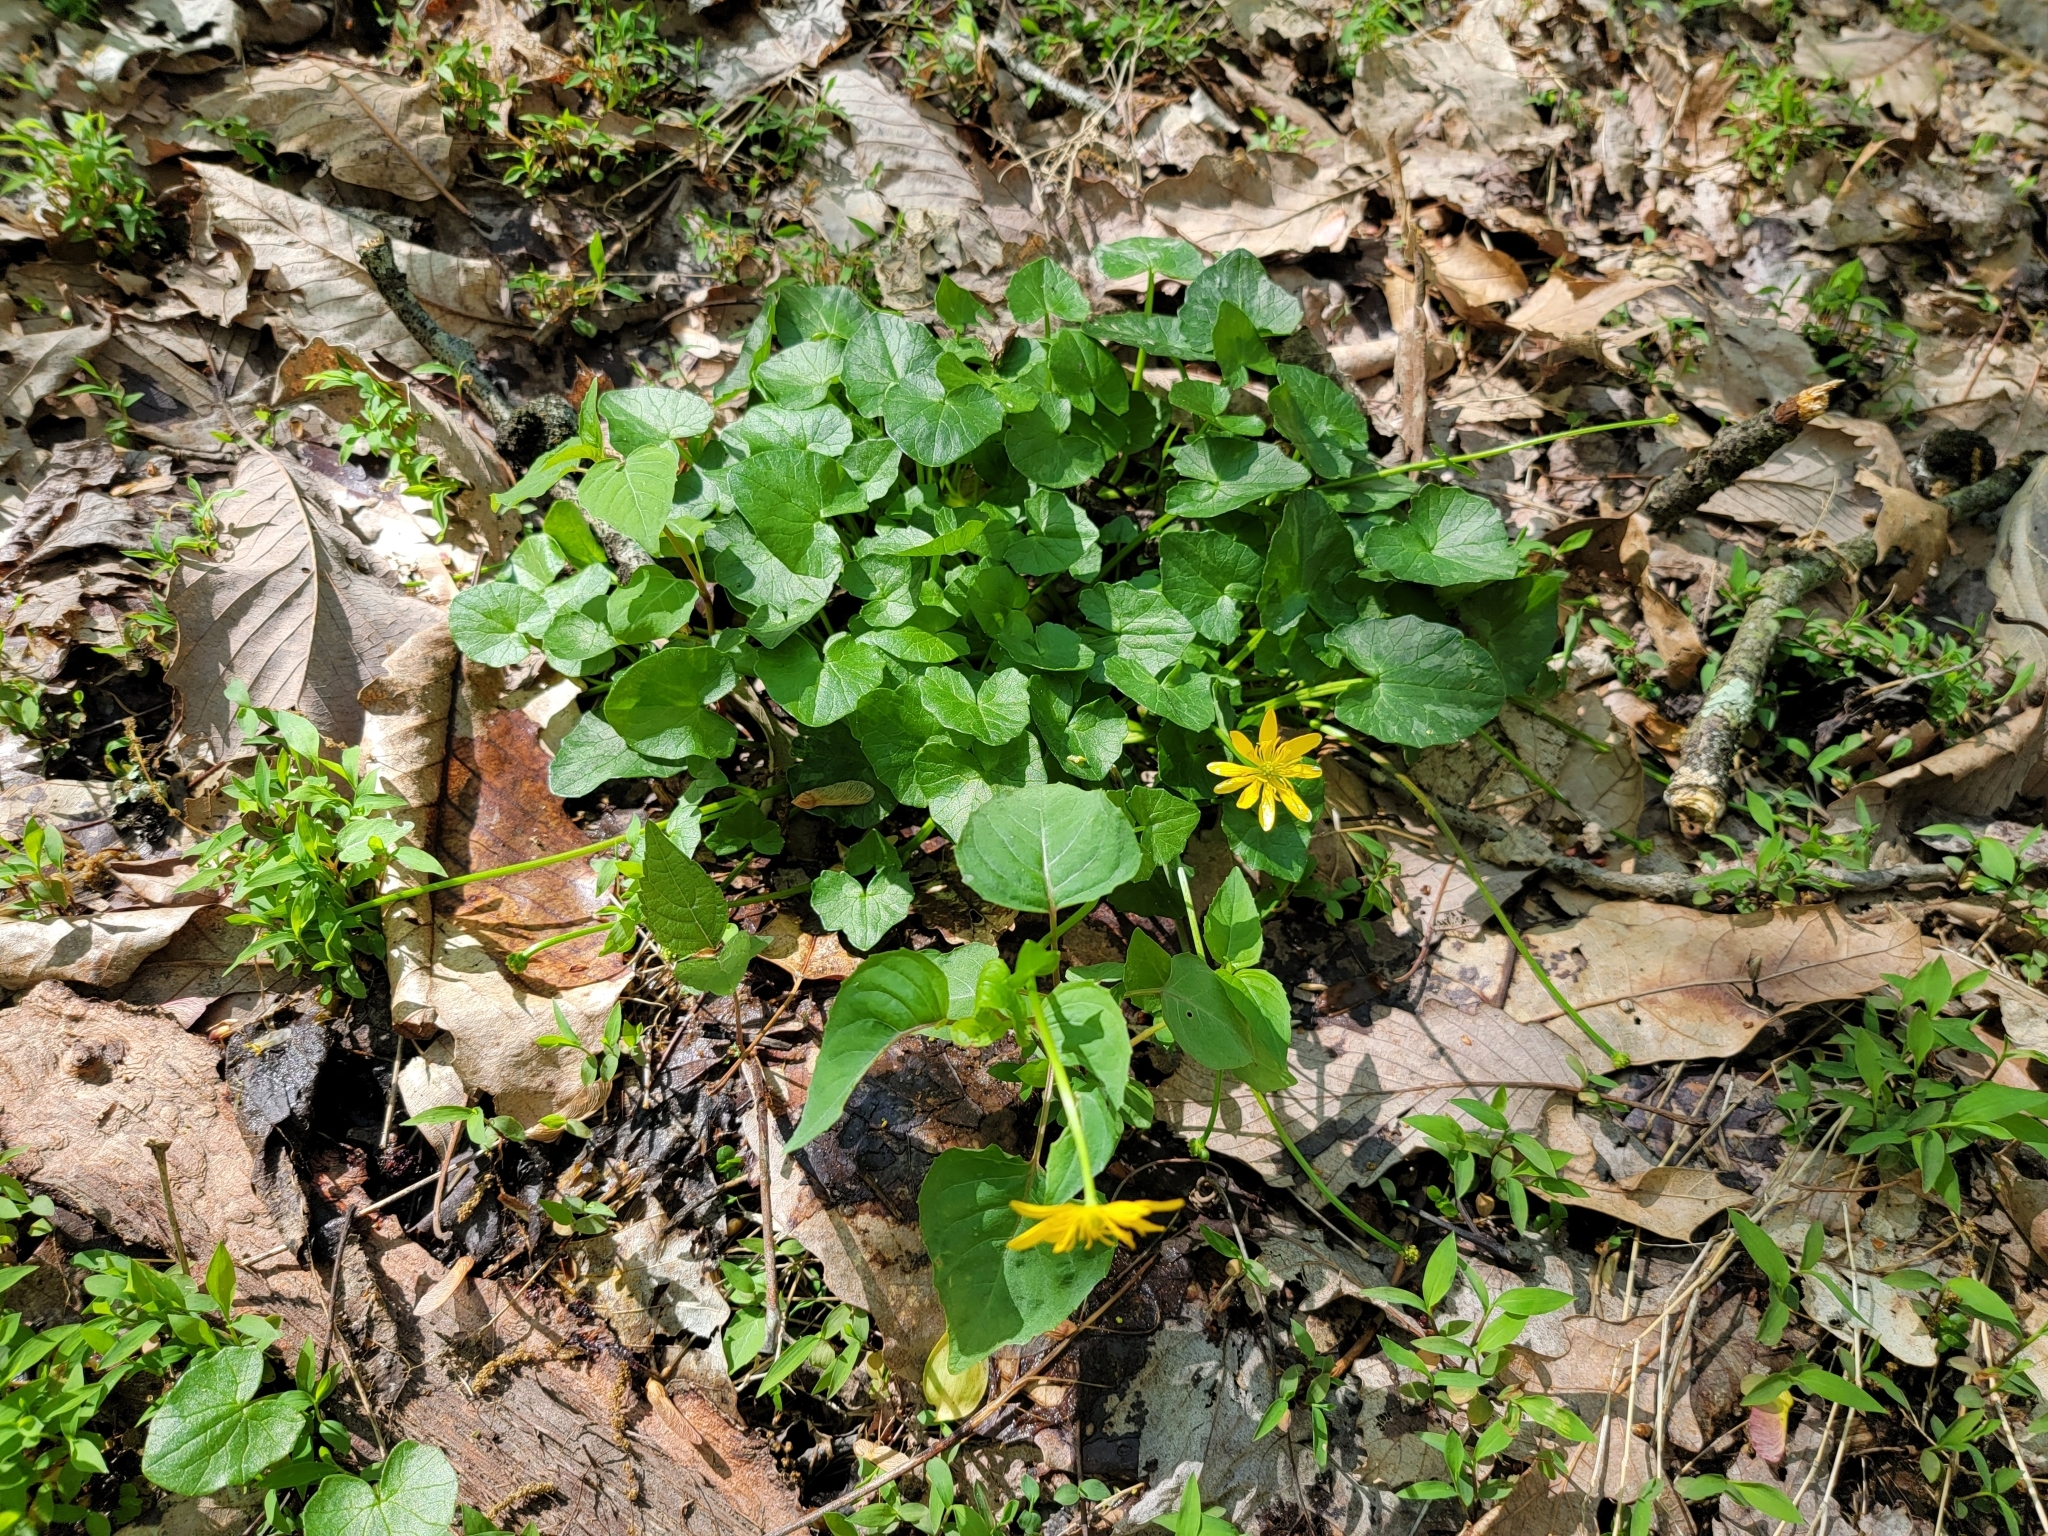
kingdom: Plantae
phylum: Tracheophyta
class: Magnoliopsida
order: Ranunculales
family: Ranunculaceae
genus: Ficaria
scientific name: Ficaria verna
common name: Lesser celandine
